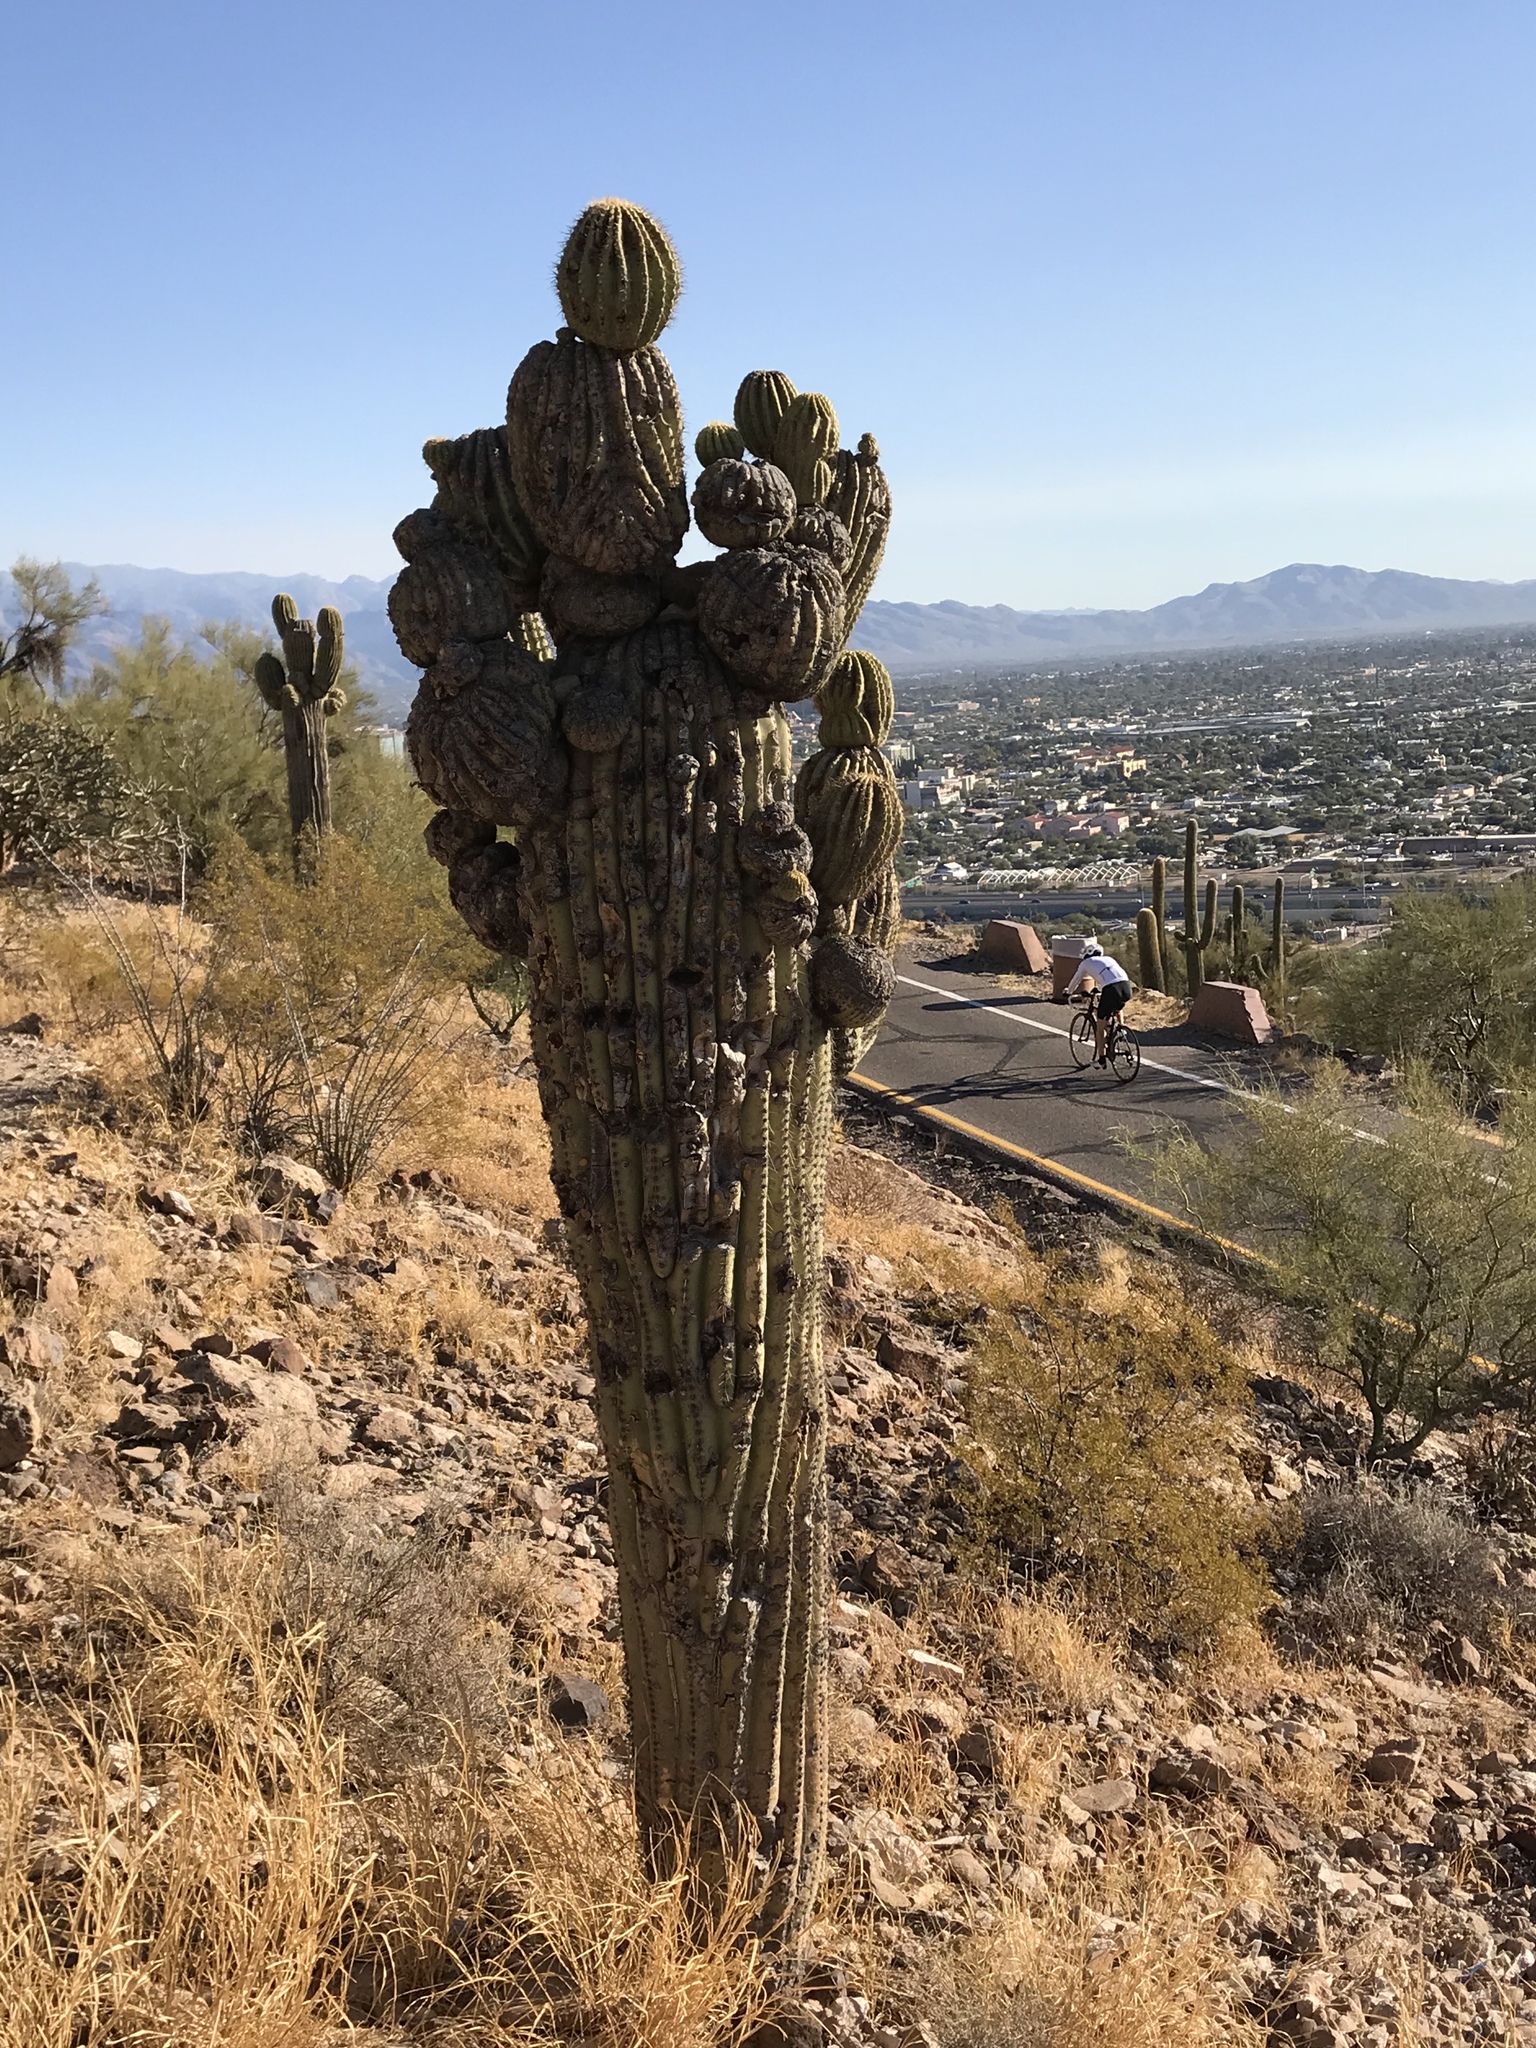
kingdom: Plantae
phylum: Tracheophyta
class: Magnoliopsida
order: Caryophyllales
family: Cactaceae
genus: Carnegiea
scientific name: Carnegiea gigantea
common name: Saguaro
